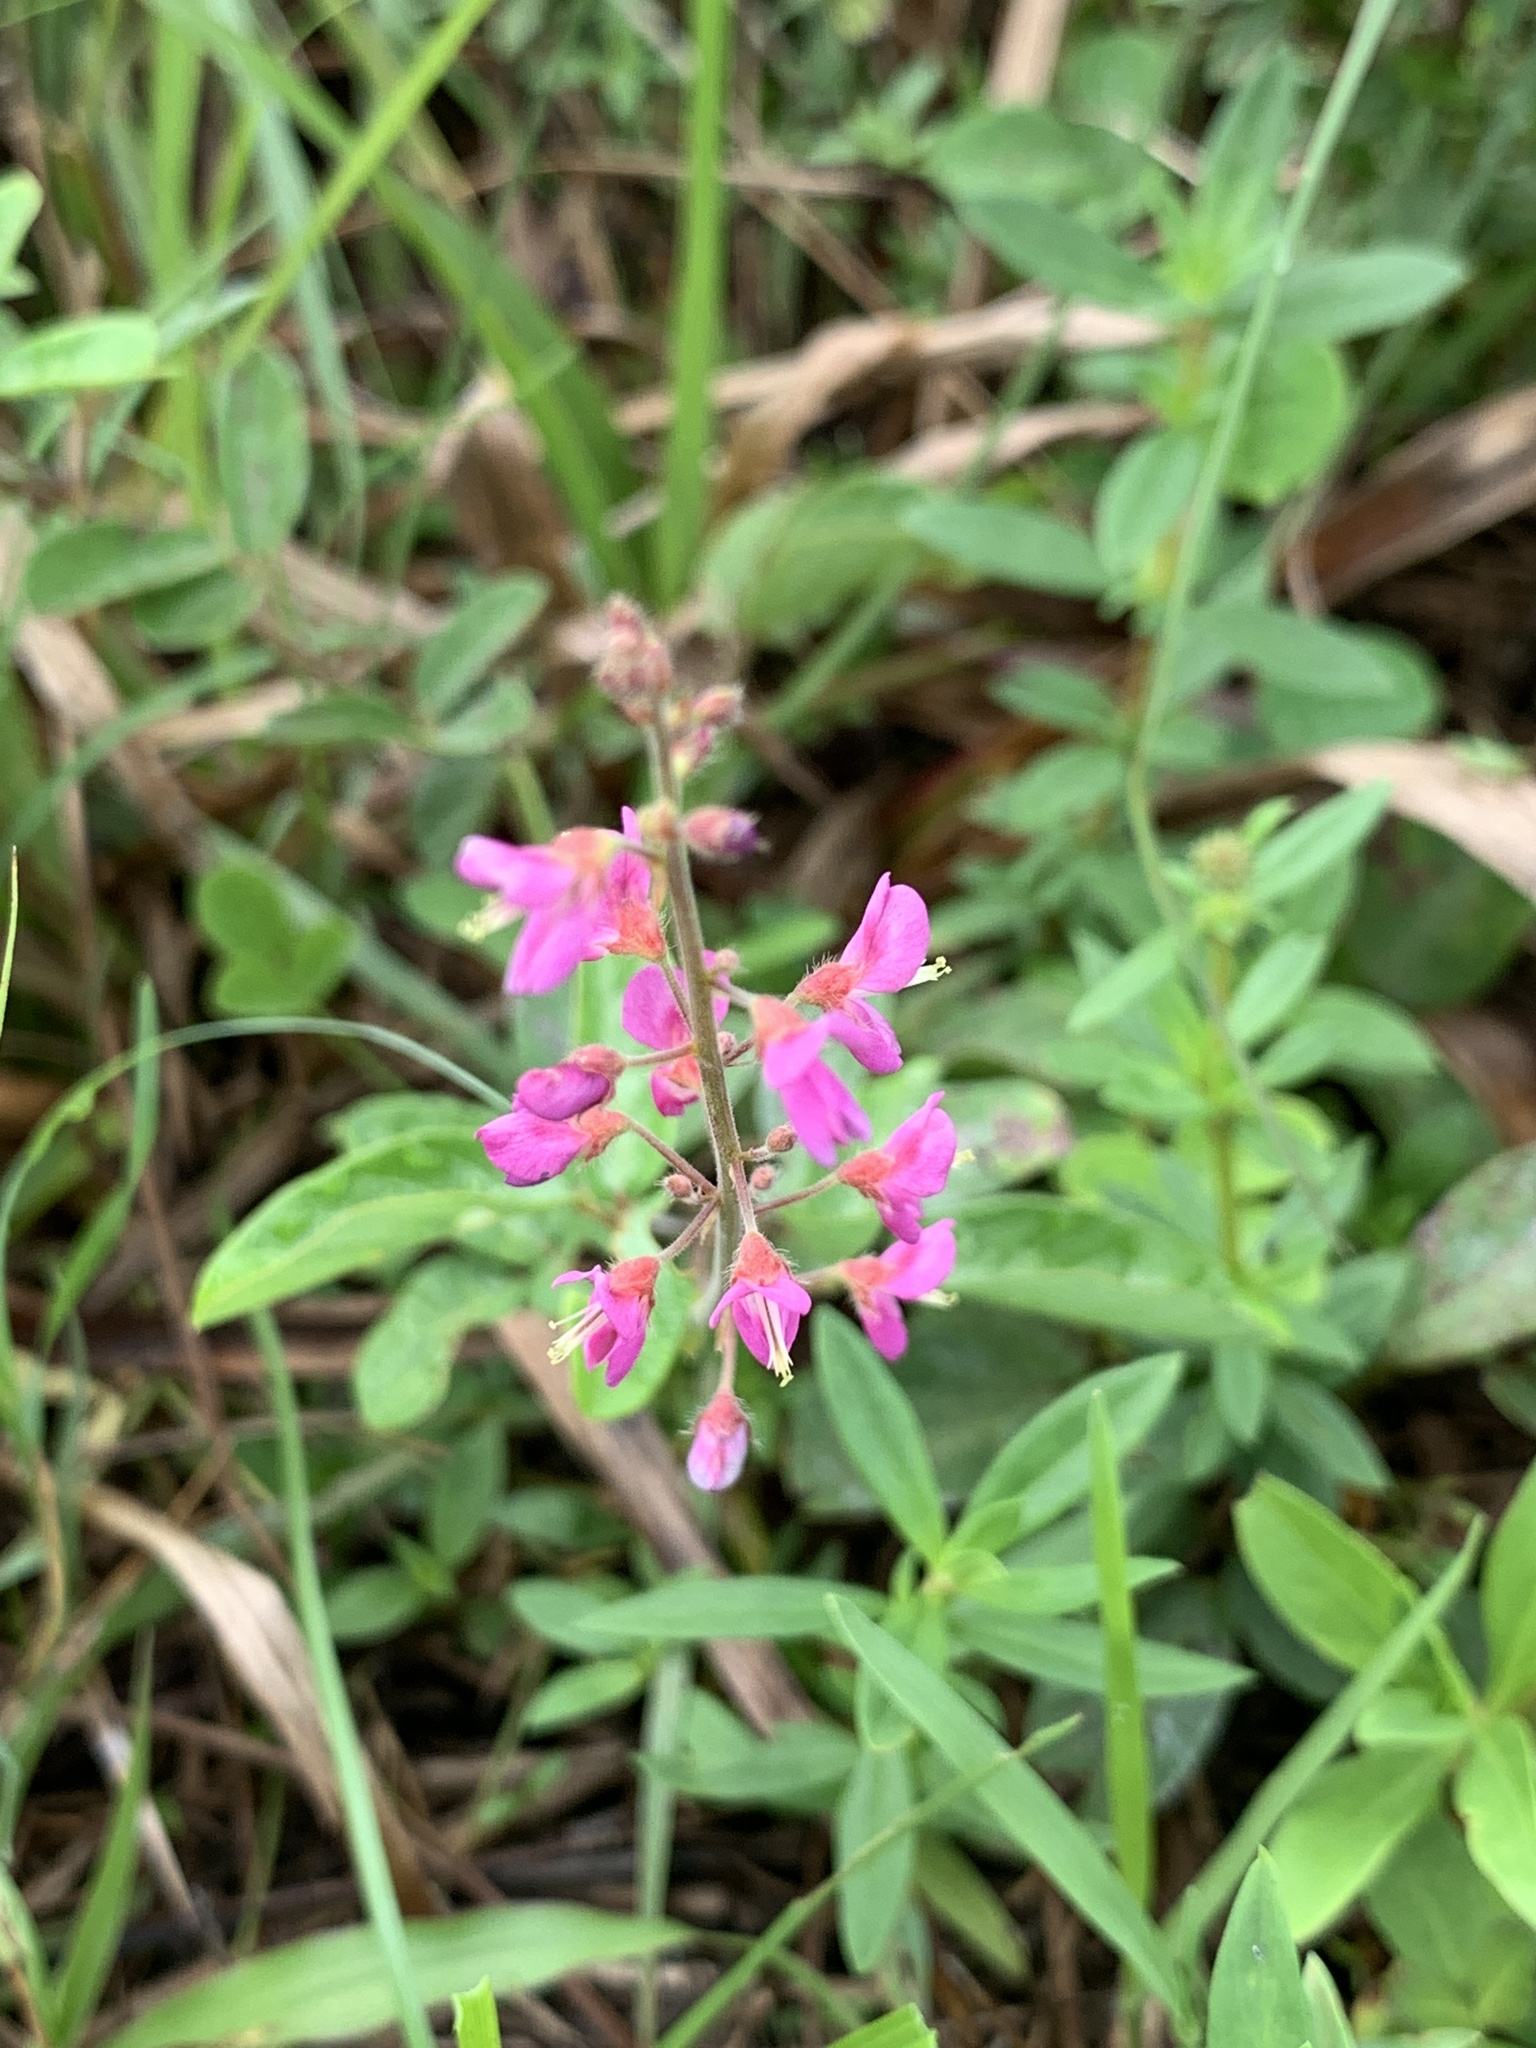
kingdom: Plantae
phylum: Tracheophyta
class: Magnoliopsida
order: Fabales
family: Fabaceae
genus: Desmodium
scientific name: Desmodium incanum
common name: Tickclover
